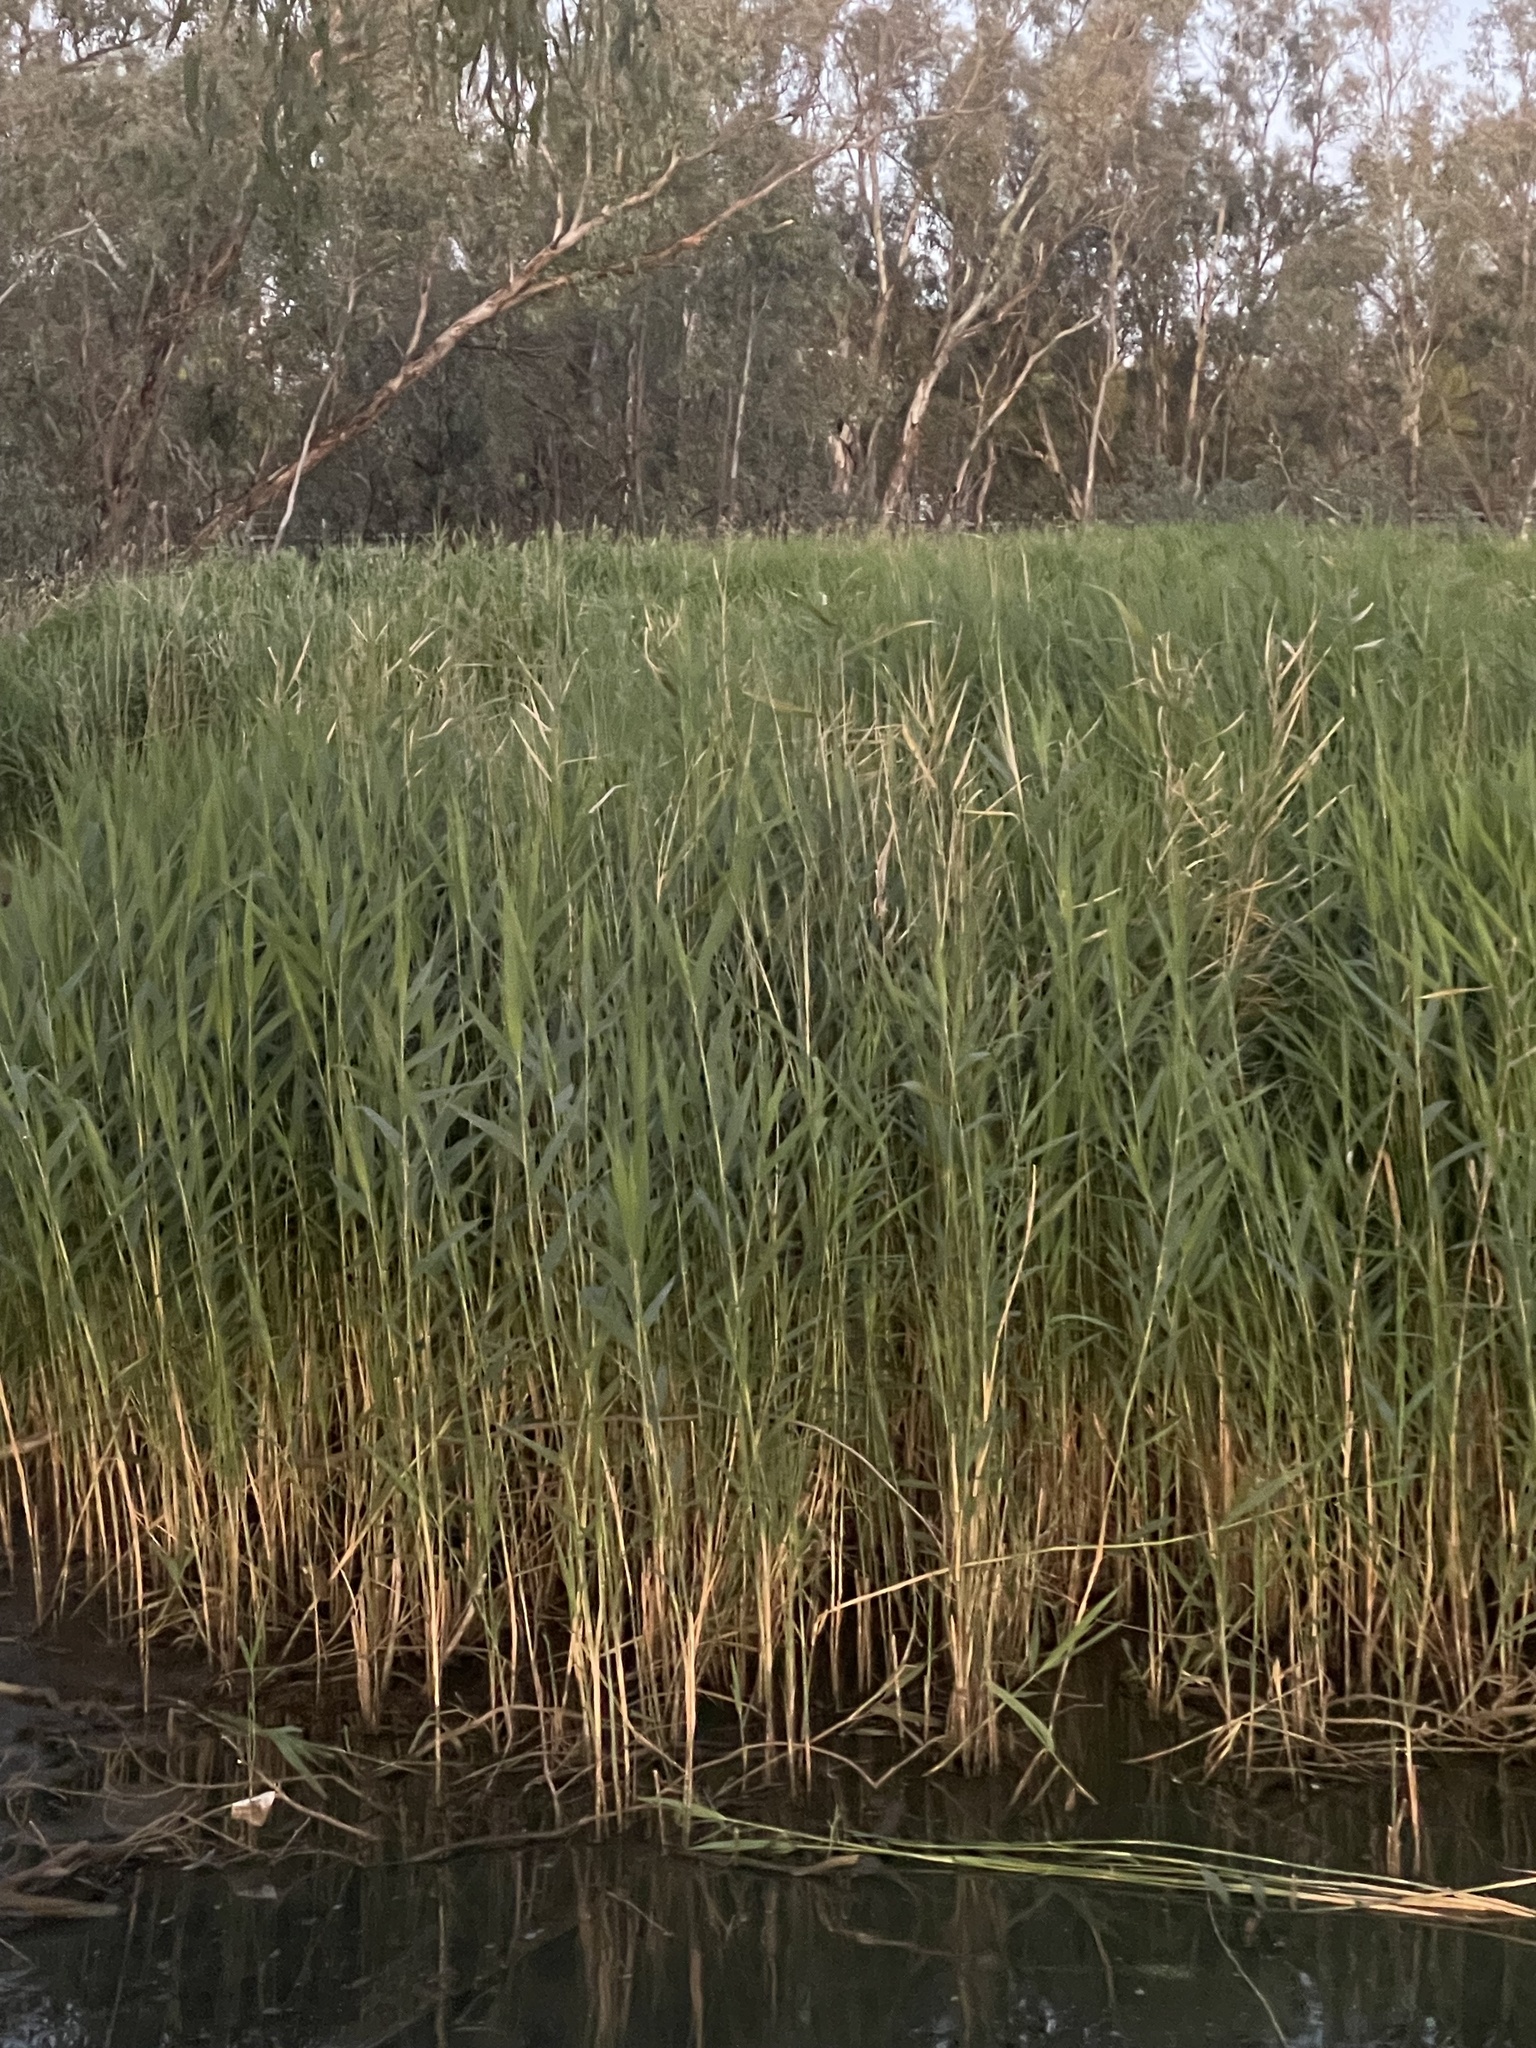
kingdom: Plantae
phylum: Tracheophyta
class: Liliopsida
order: Poales
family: Poaceae
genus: Phragmites
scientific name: Phragmites australis
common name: Common reed
